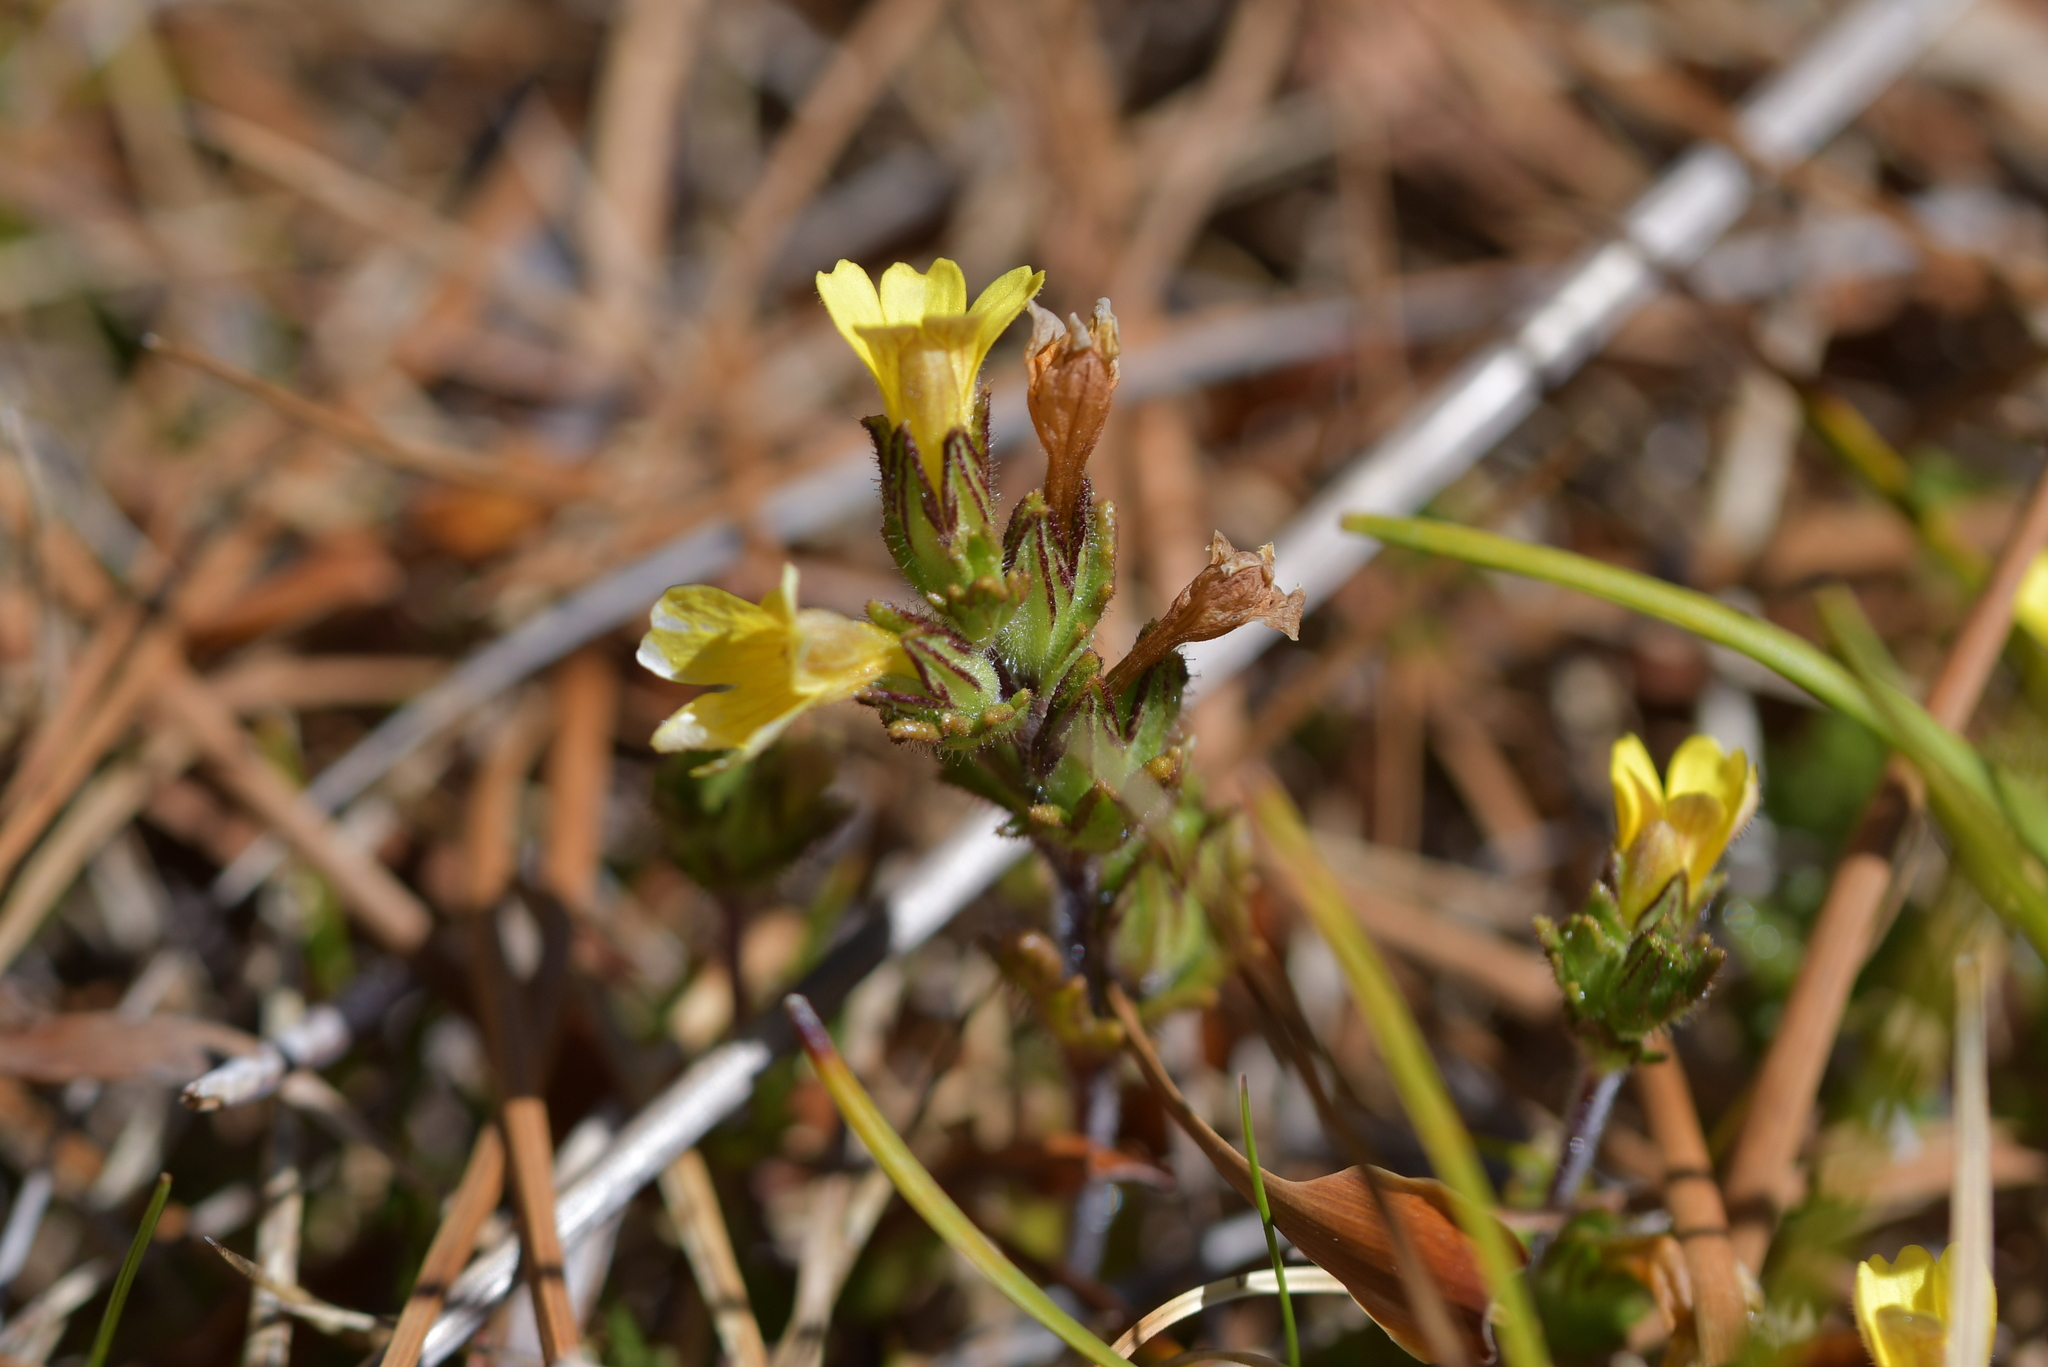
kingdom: Plantae
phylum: Tracheophyta
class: Magnoliopsida
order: Lamiales
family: Orobanchaceae
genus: Euphrasia
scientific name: Euphrasia cockayneana
